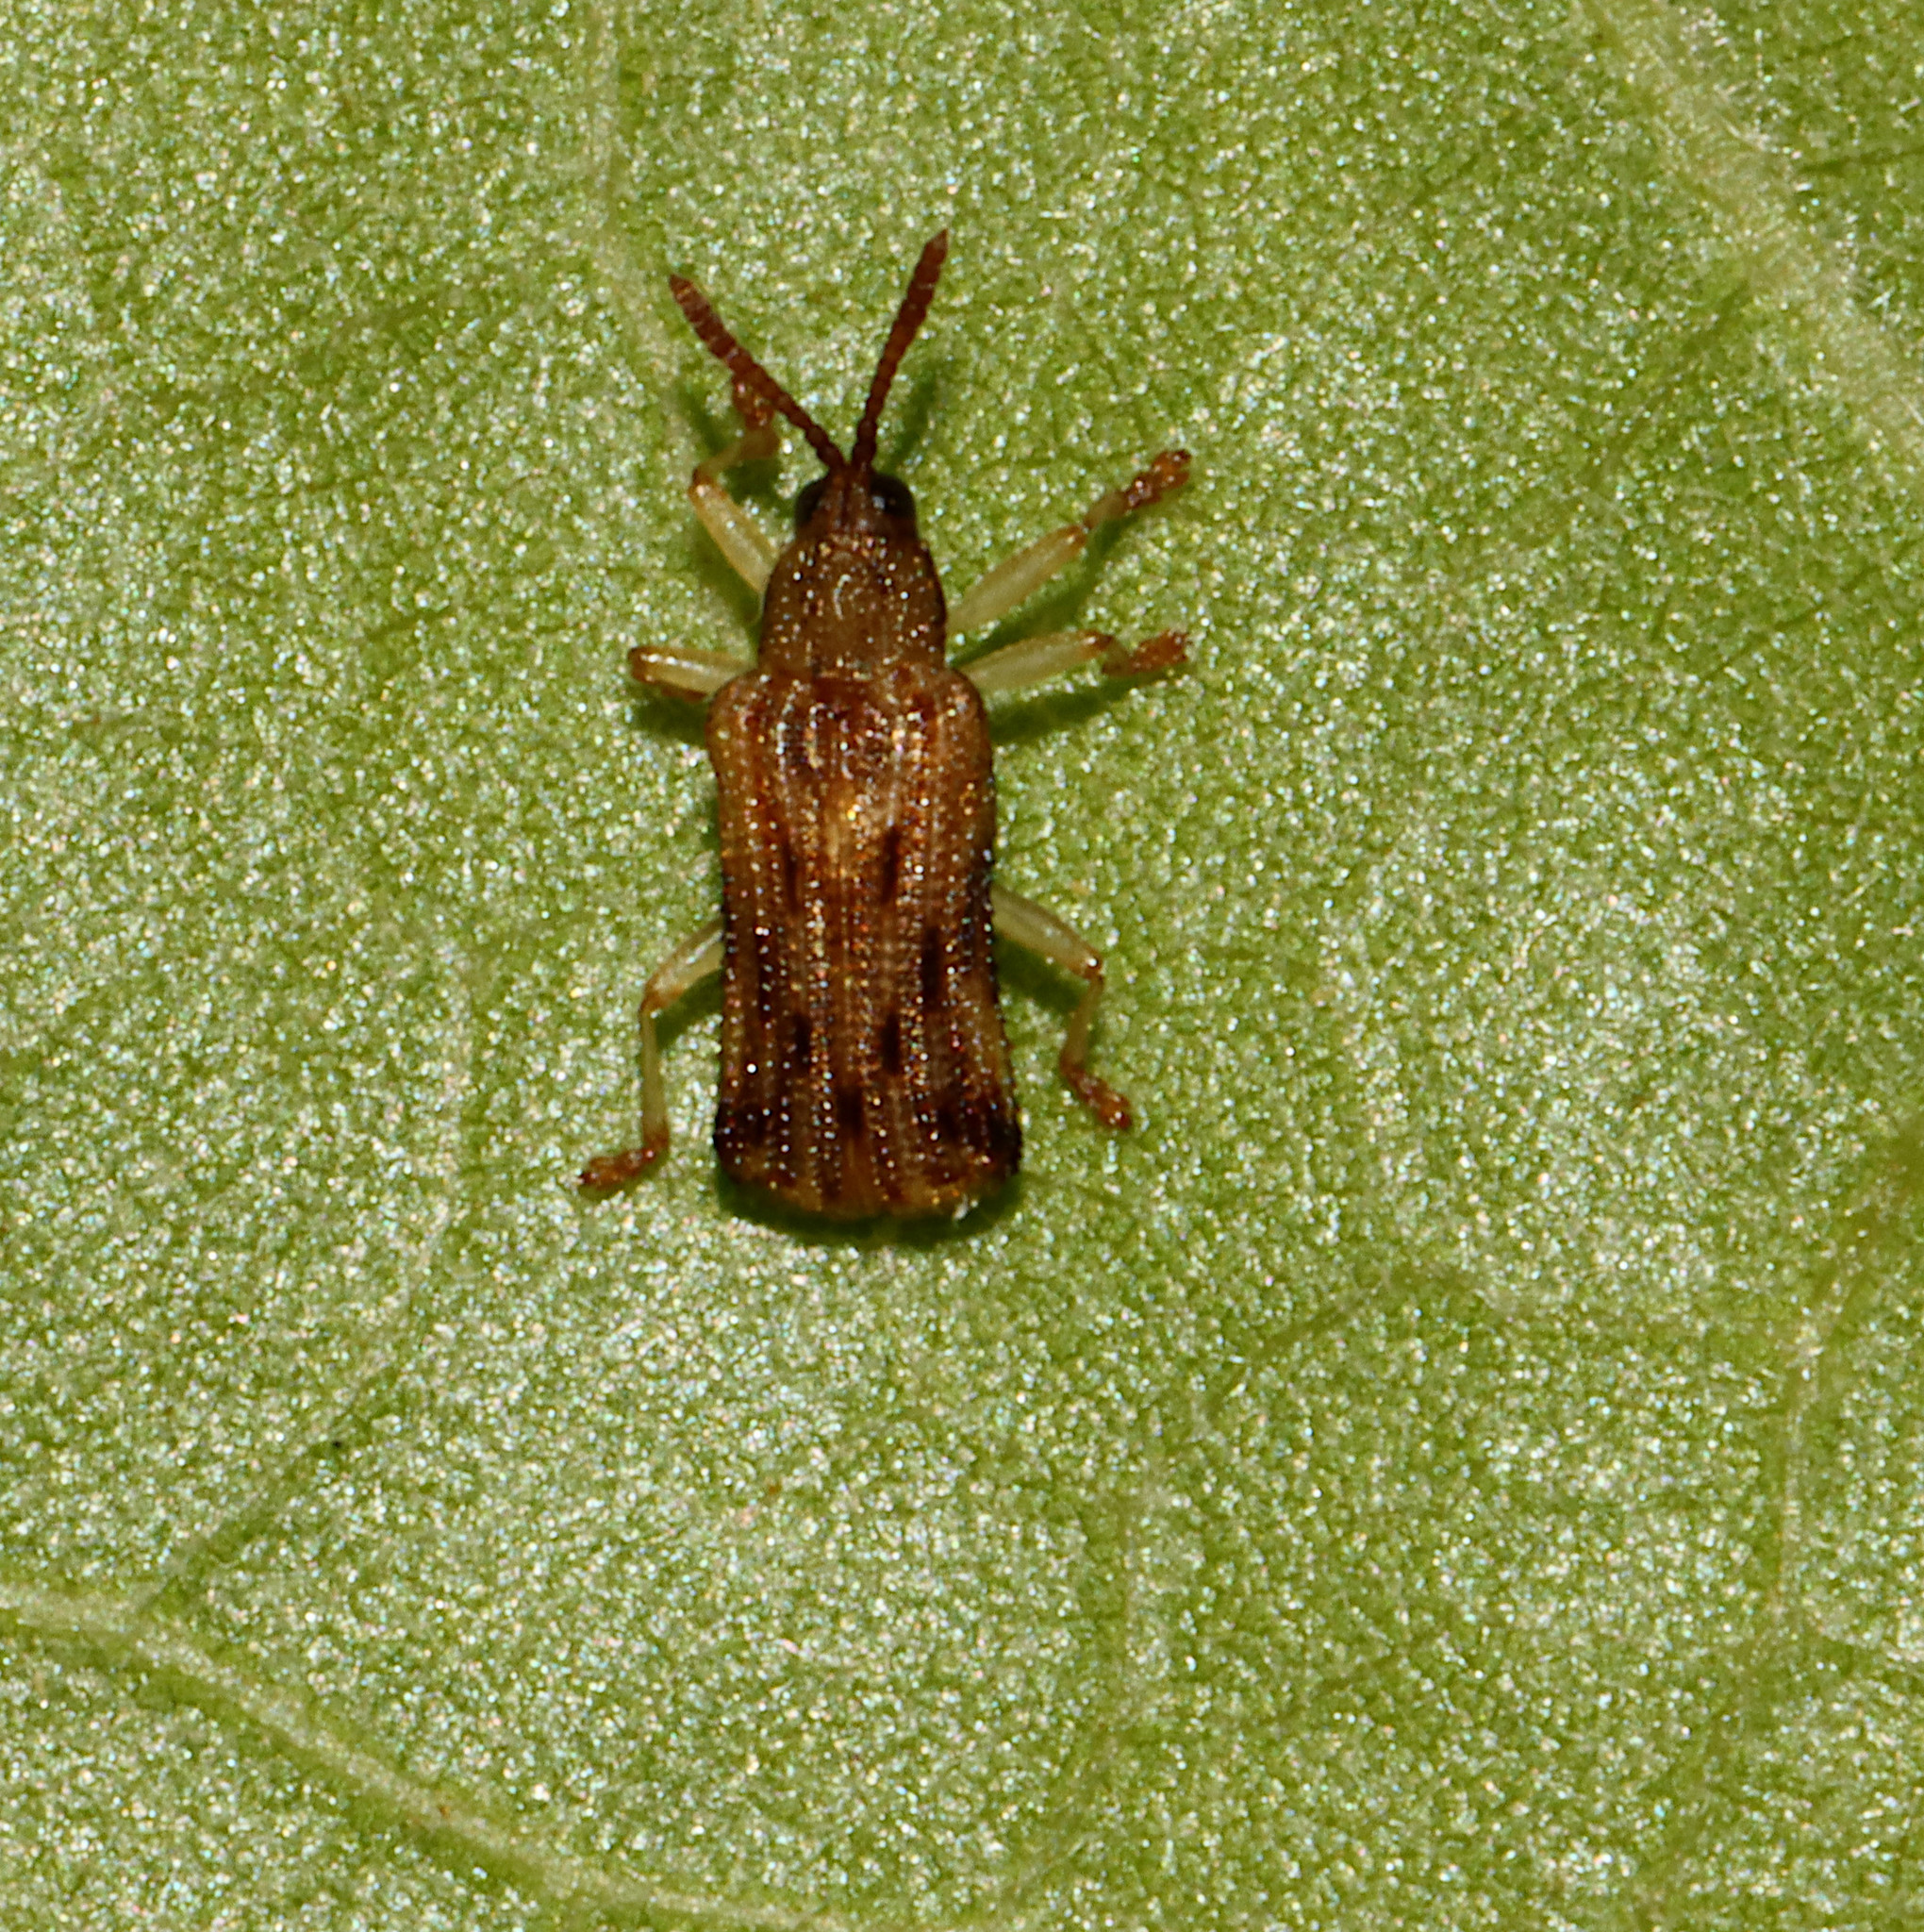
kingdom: Animalia
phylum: Arthropoda
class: Insecta
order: Coleoptera
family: Chrysomelidae
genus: Sumitrosis
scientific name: Sumitrosis rosea
